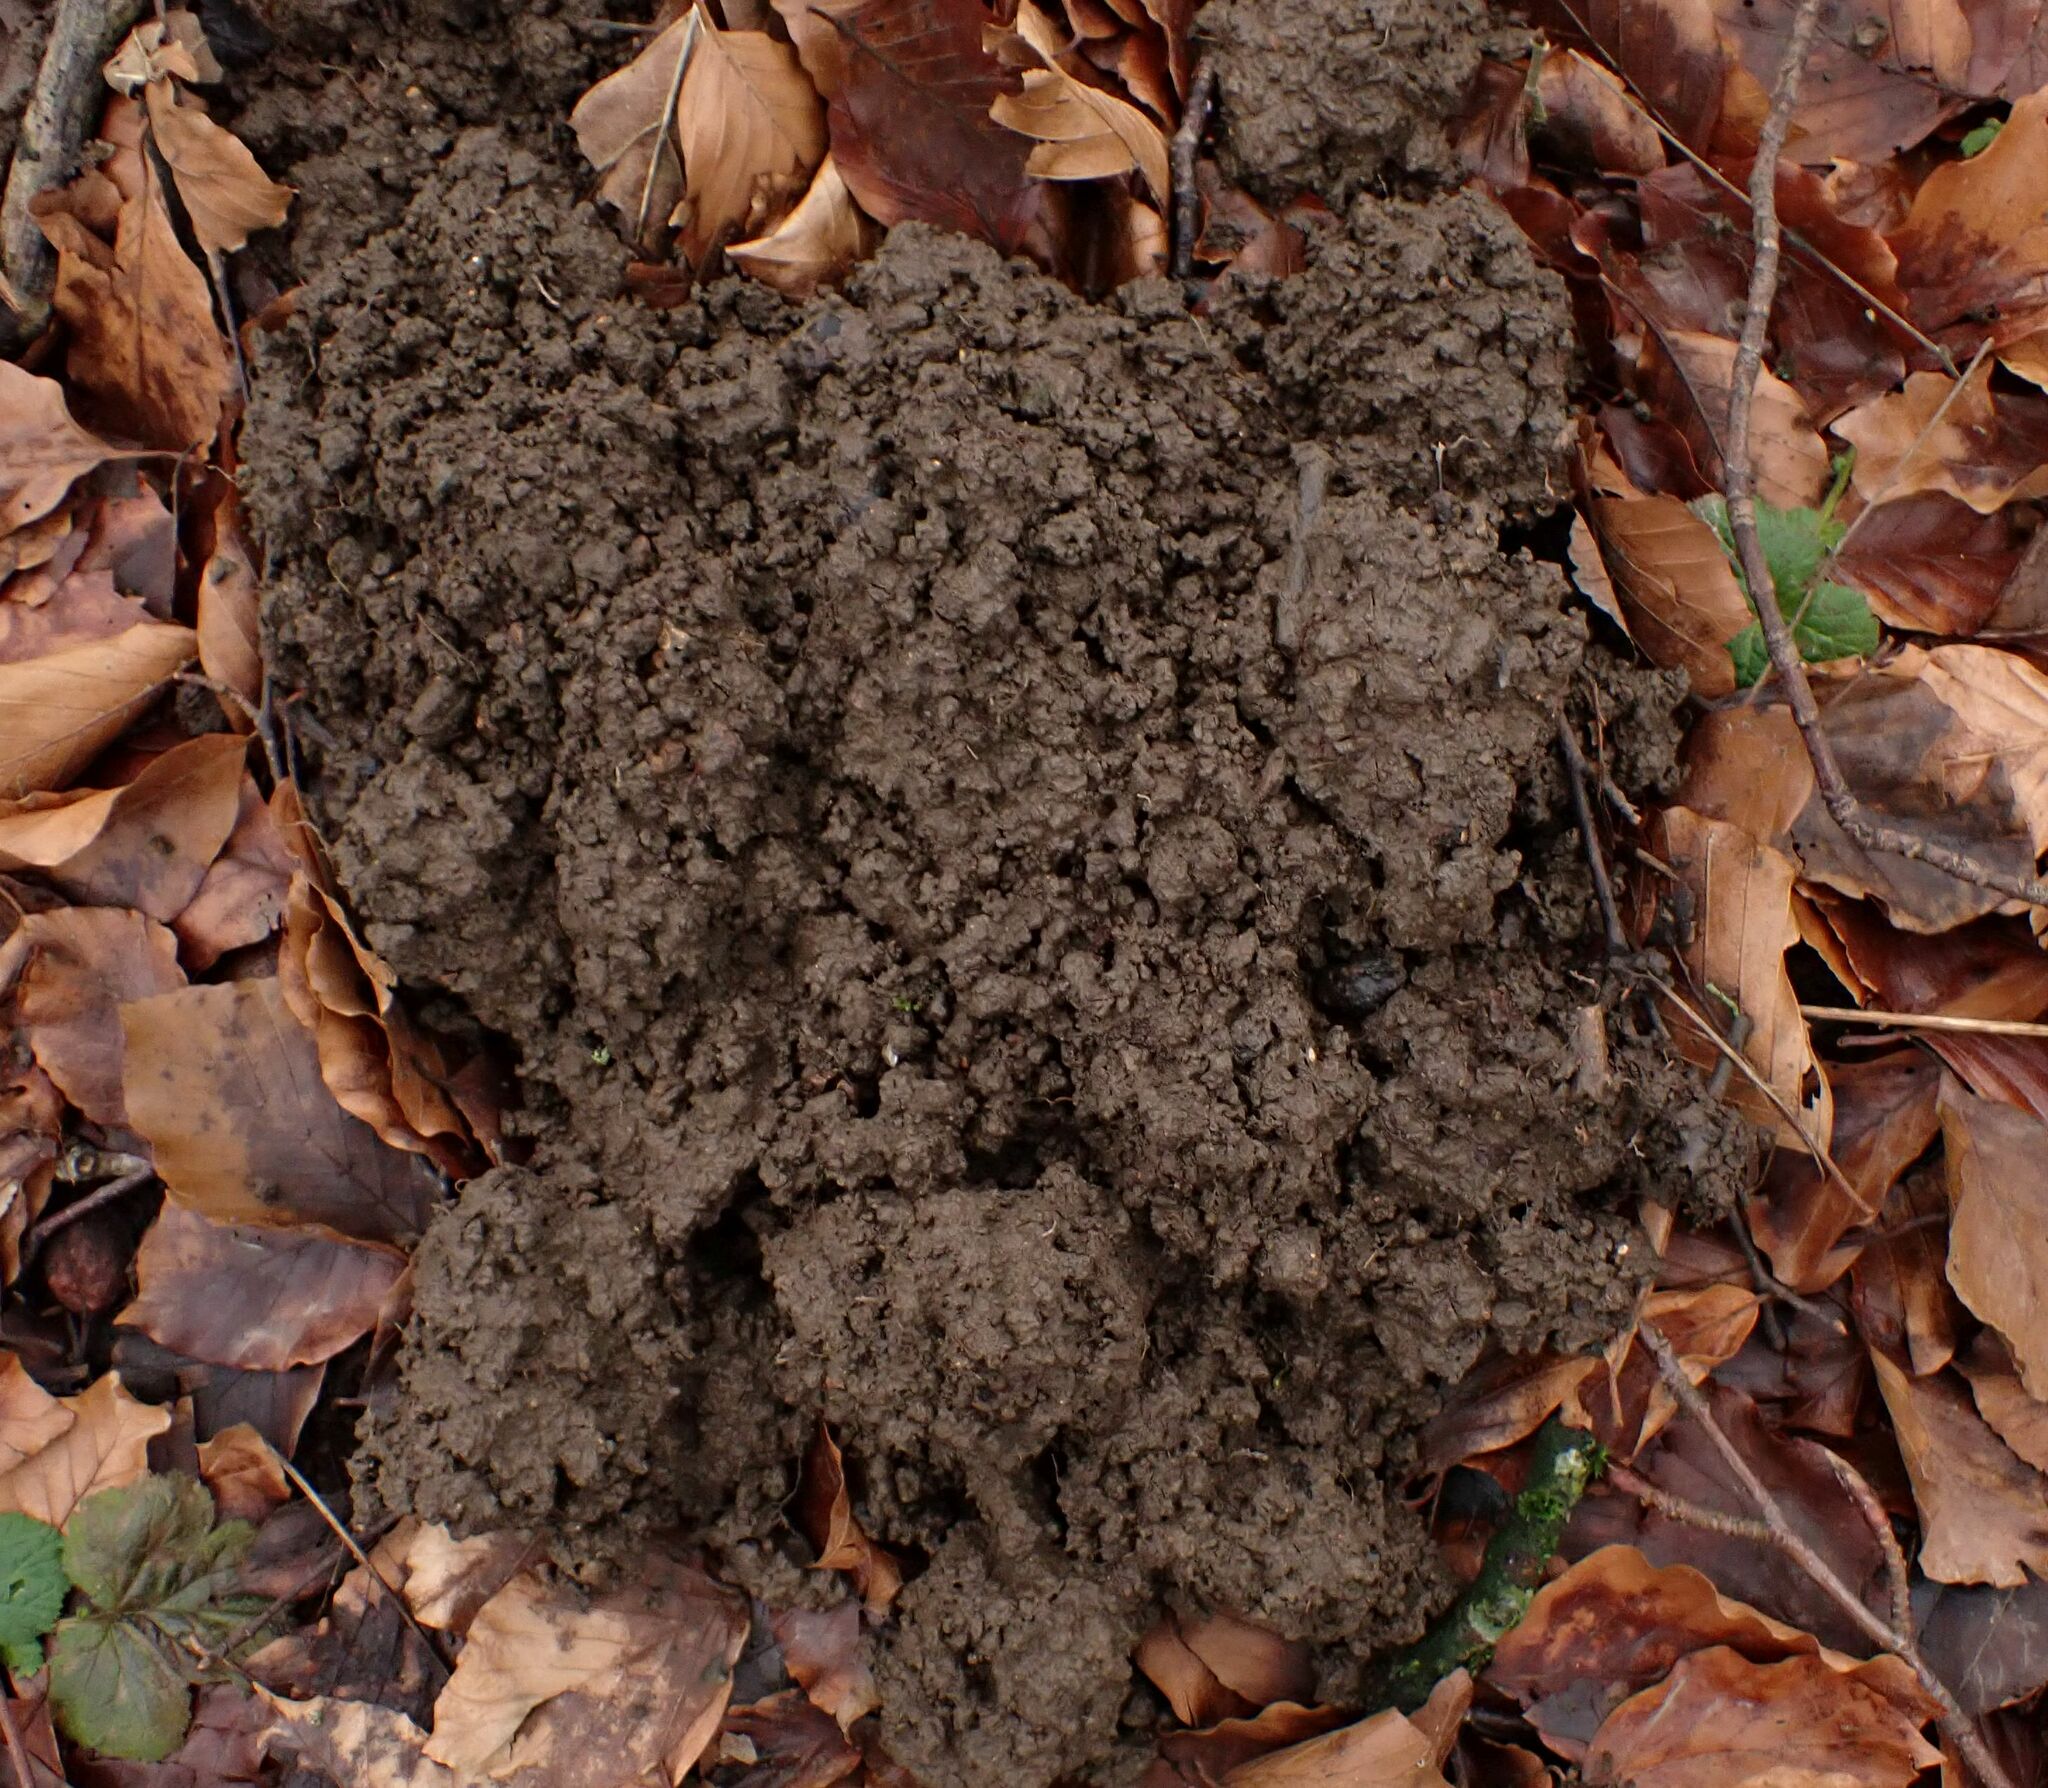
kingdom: Animalia
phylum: Chordata
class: Mammalia
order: Soricomorpha
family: Talpidae
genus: Talpa
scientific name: Talpa europaea
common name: European mole
